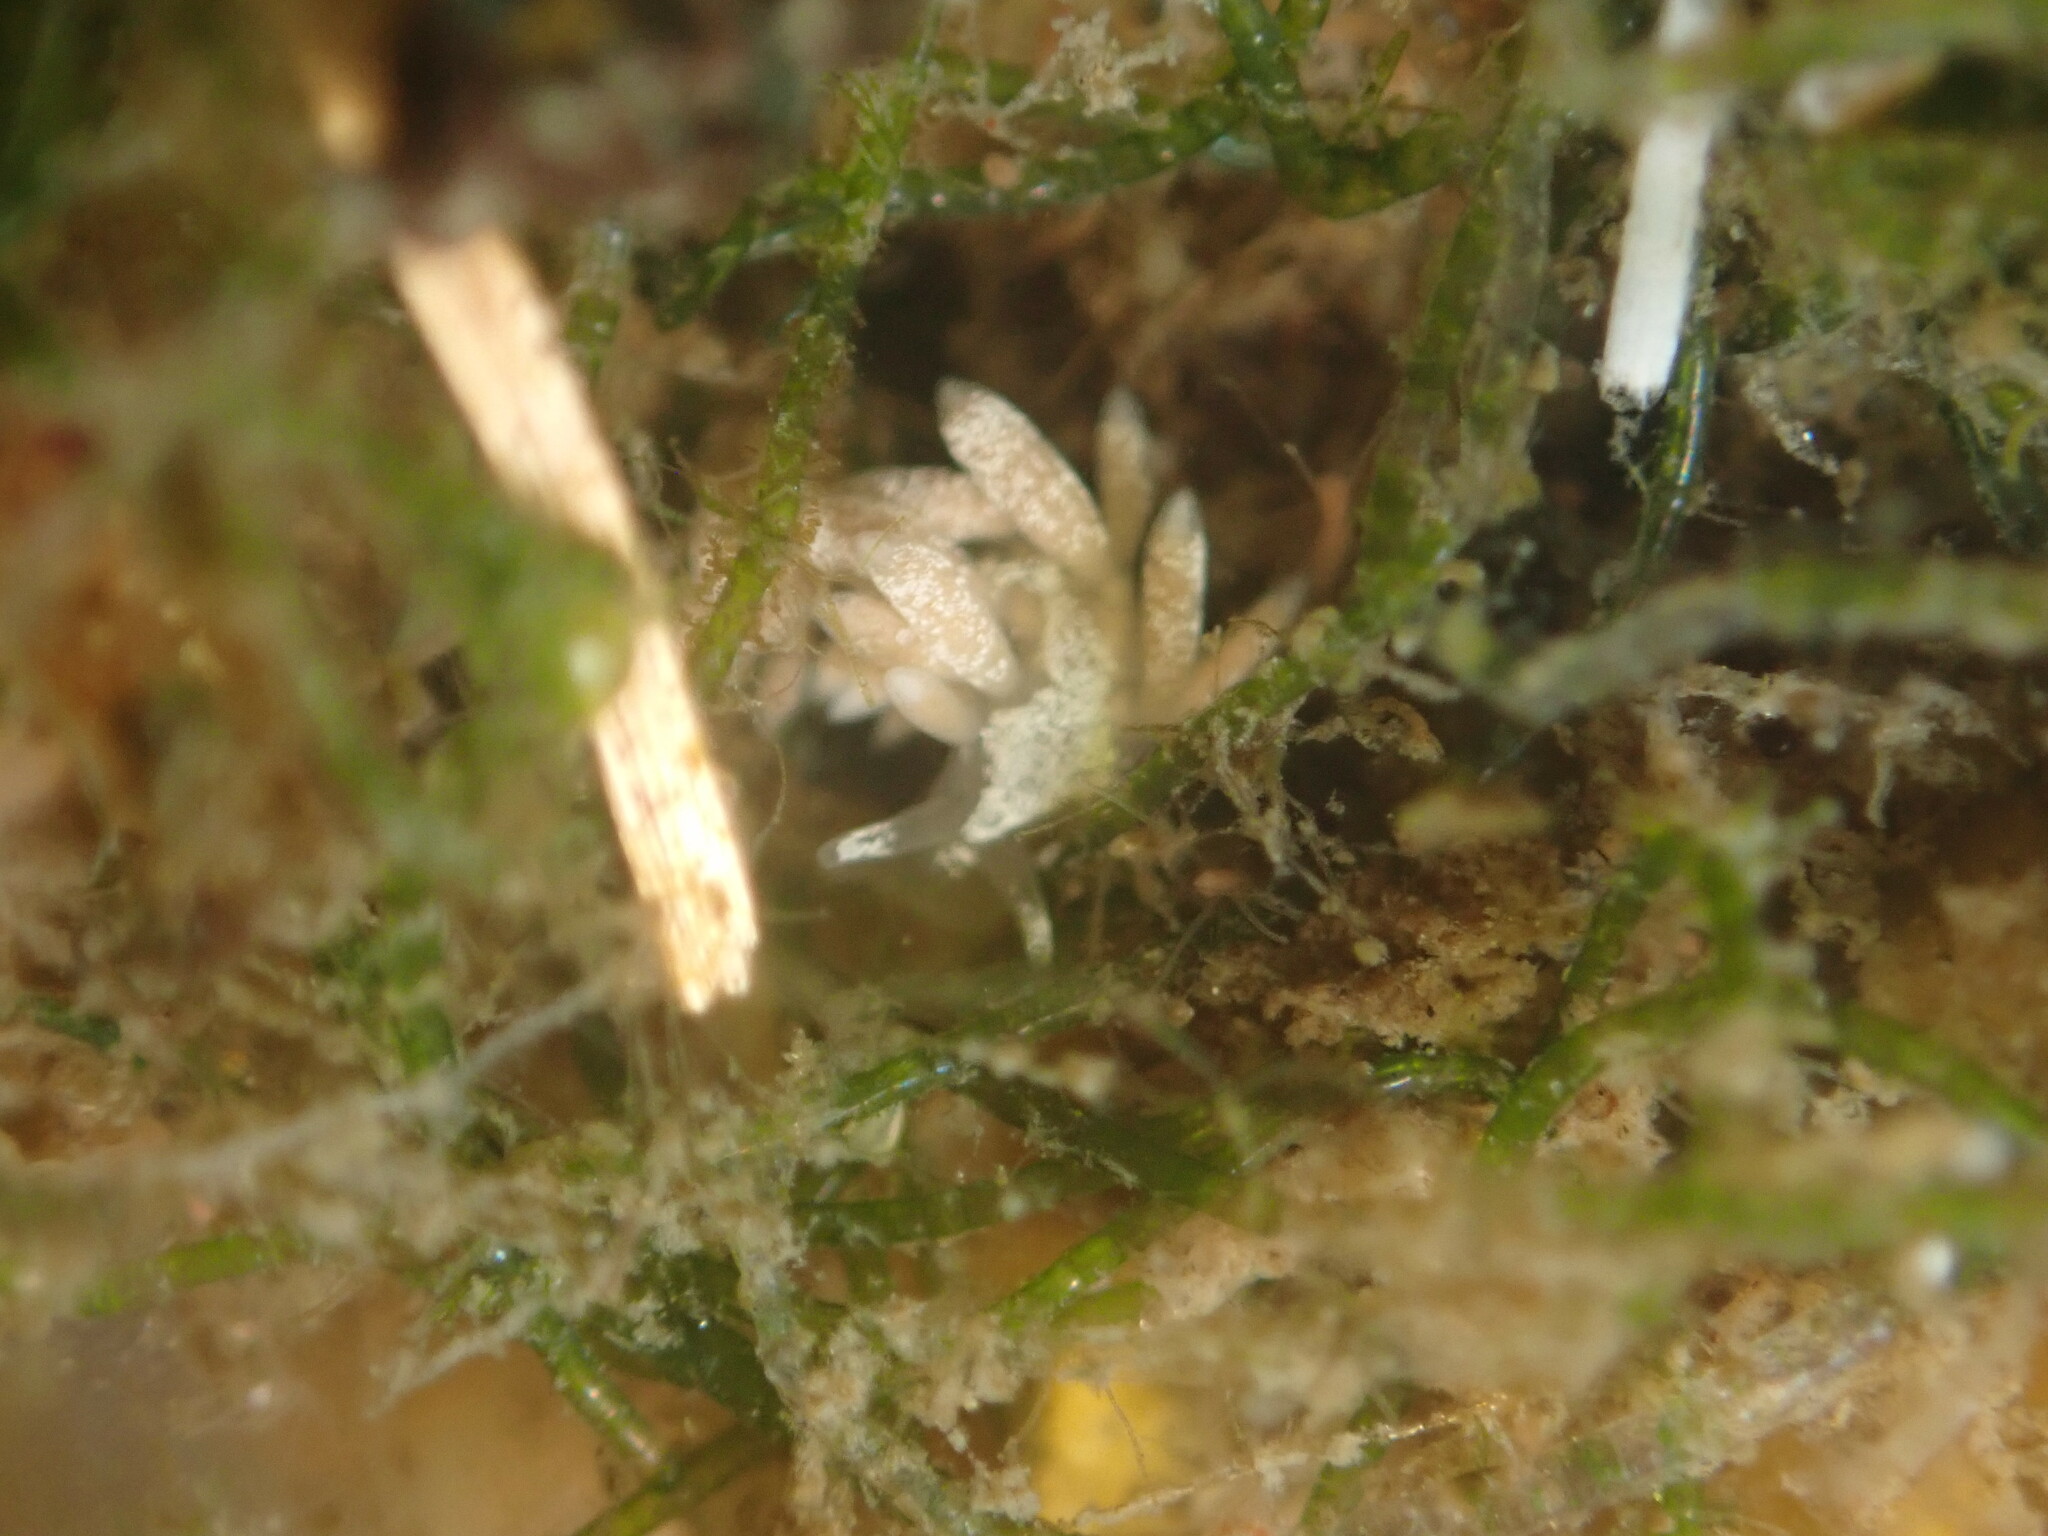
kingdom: Animalia
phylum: Mollusca
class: Gastropoda
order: Nudibranchia
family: Trinchesiidae
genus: Trinchesia
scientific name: Trinchesia albocrusta
